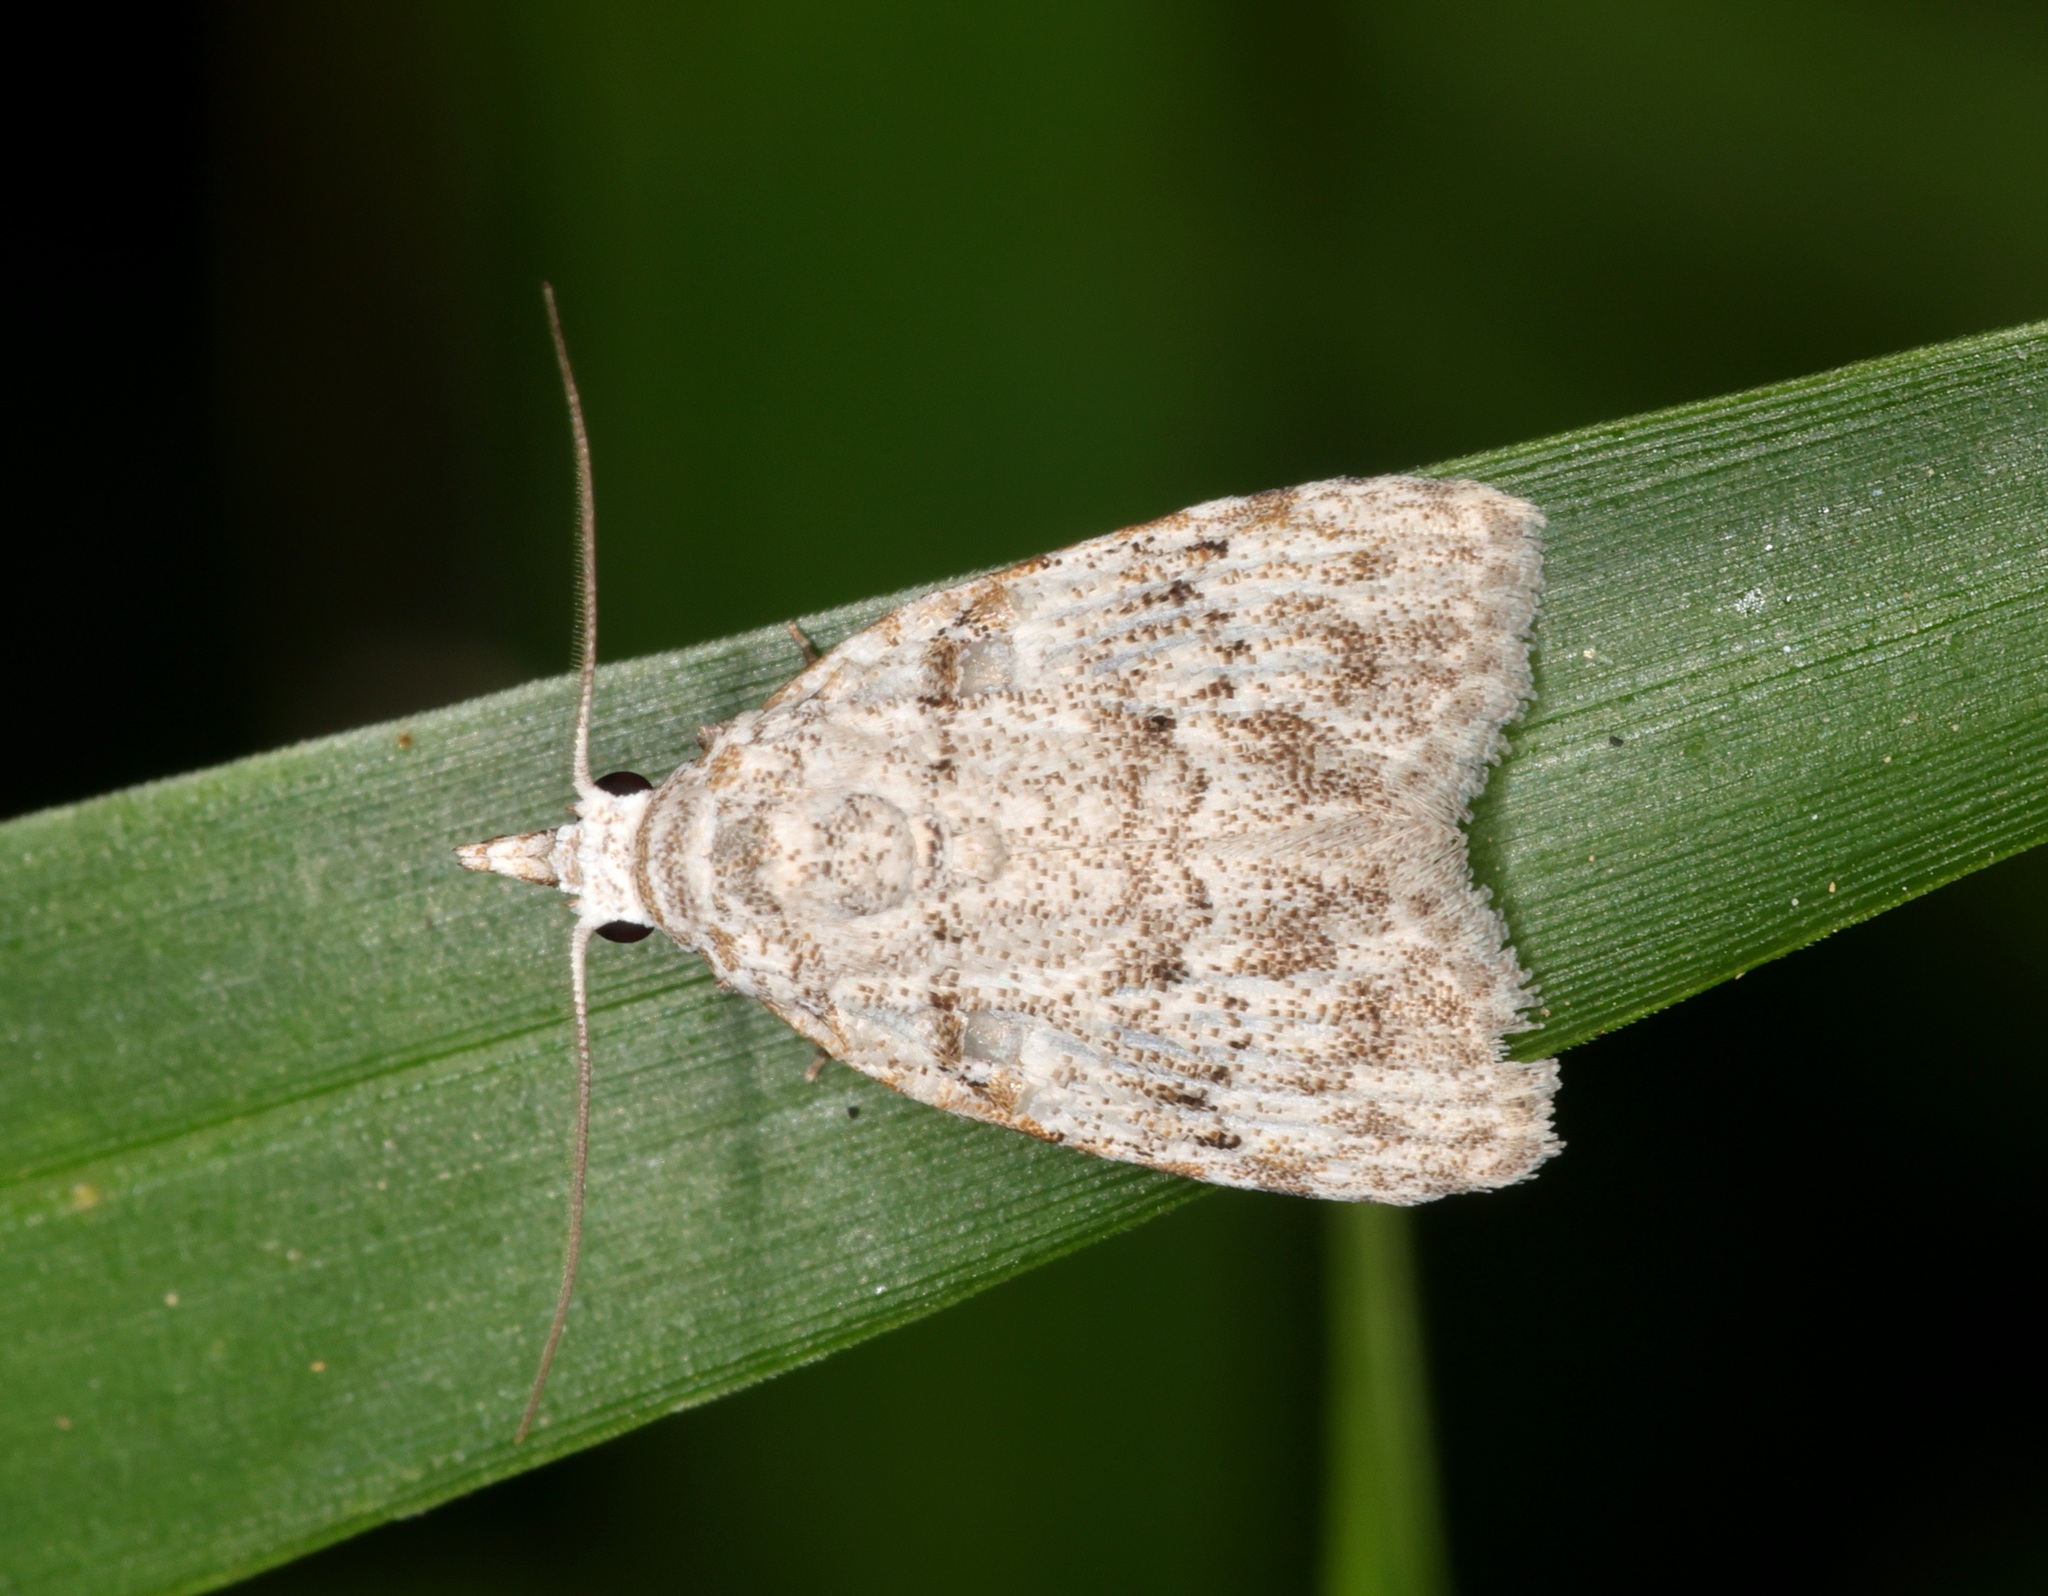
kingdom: Animalia
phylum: Arthropoda
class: Insecta
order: Lepidoptera
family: Nolidae
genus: Nola
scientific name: Nola thyrophora
